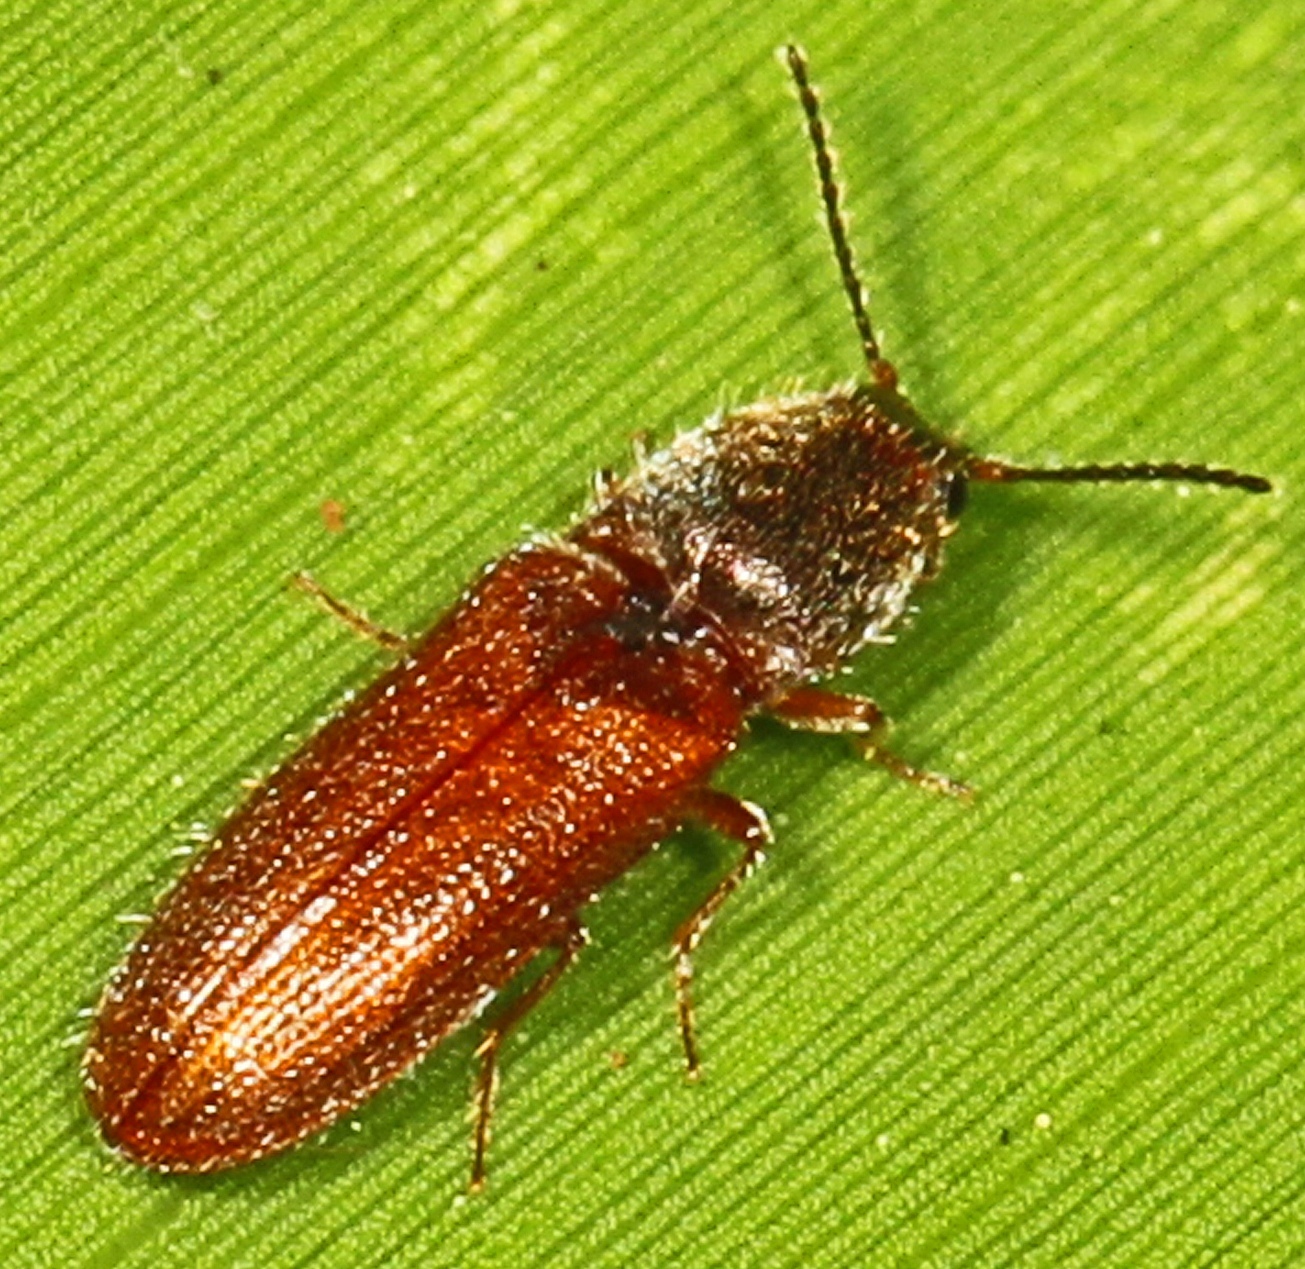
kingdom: Animalia
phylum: Arthropoda
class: Insecta
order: Coleoptera
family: Elateridae
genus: Limonius
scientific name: Limonius
